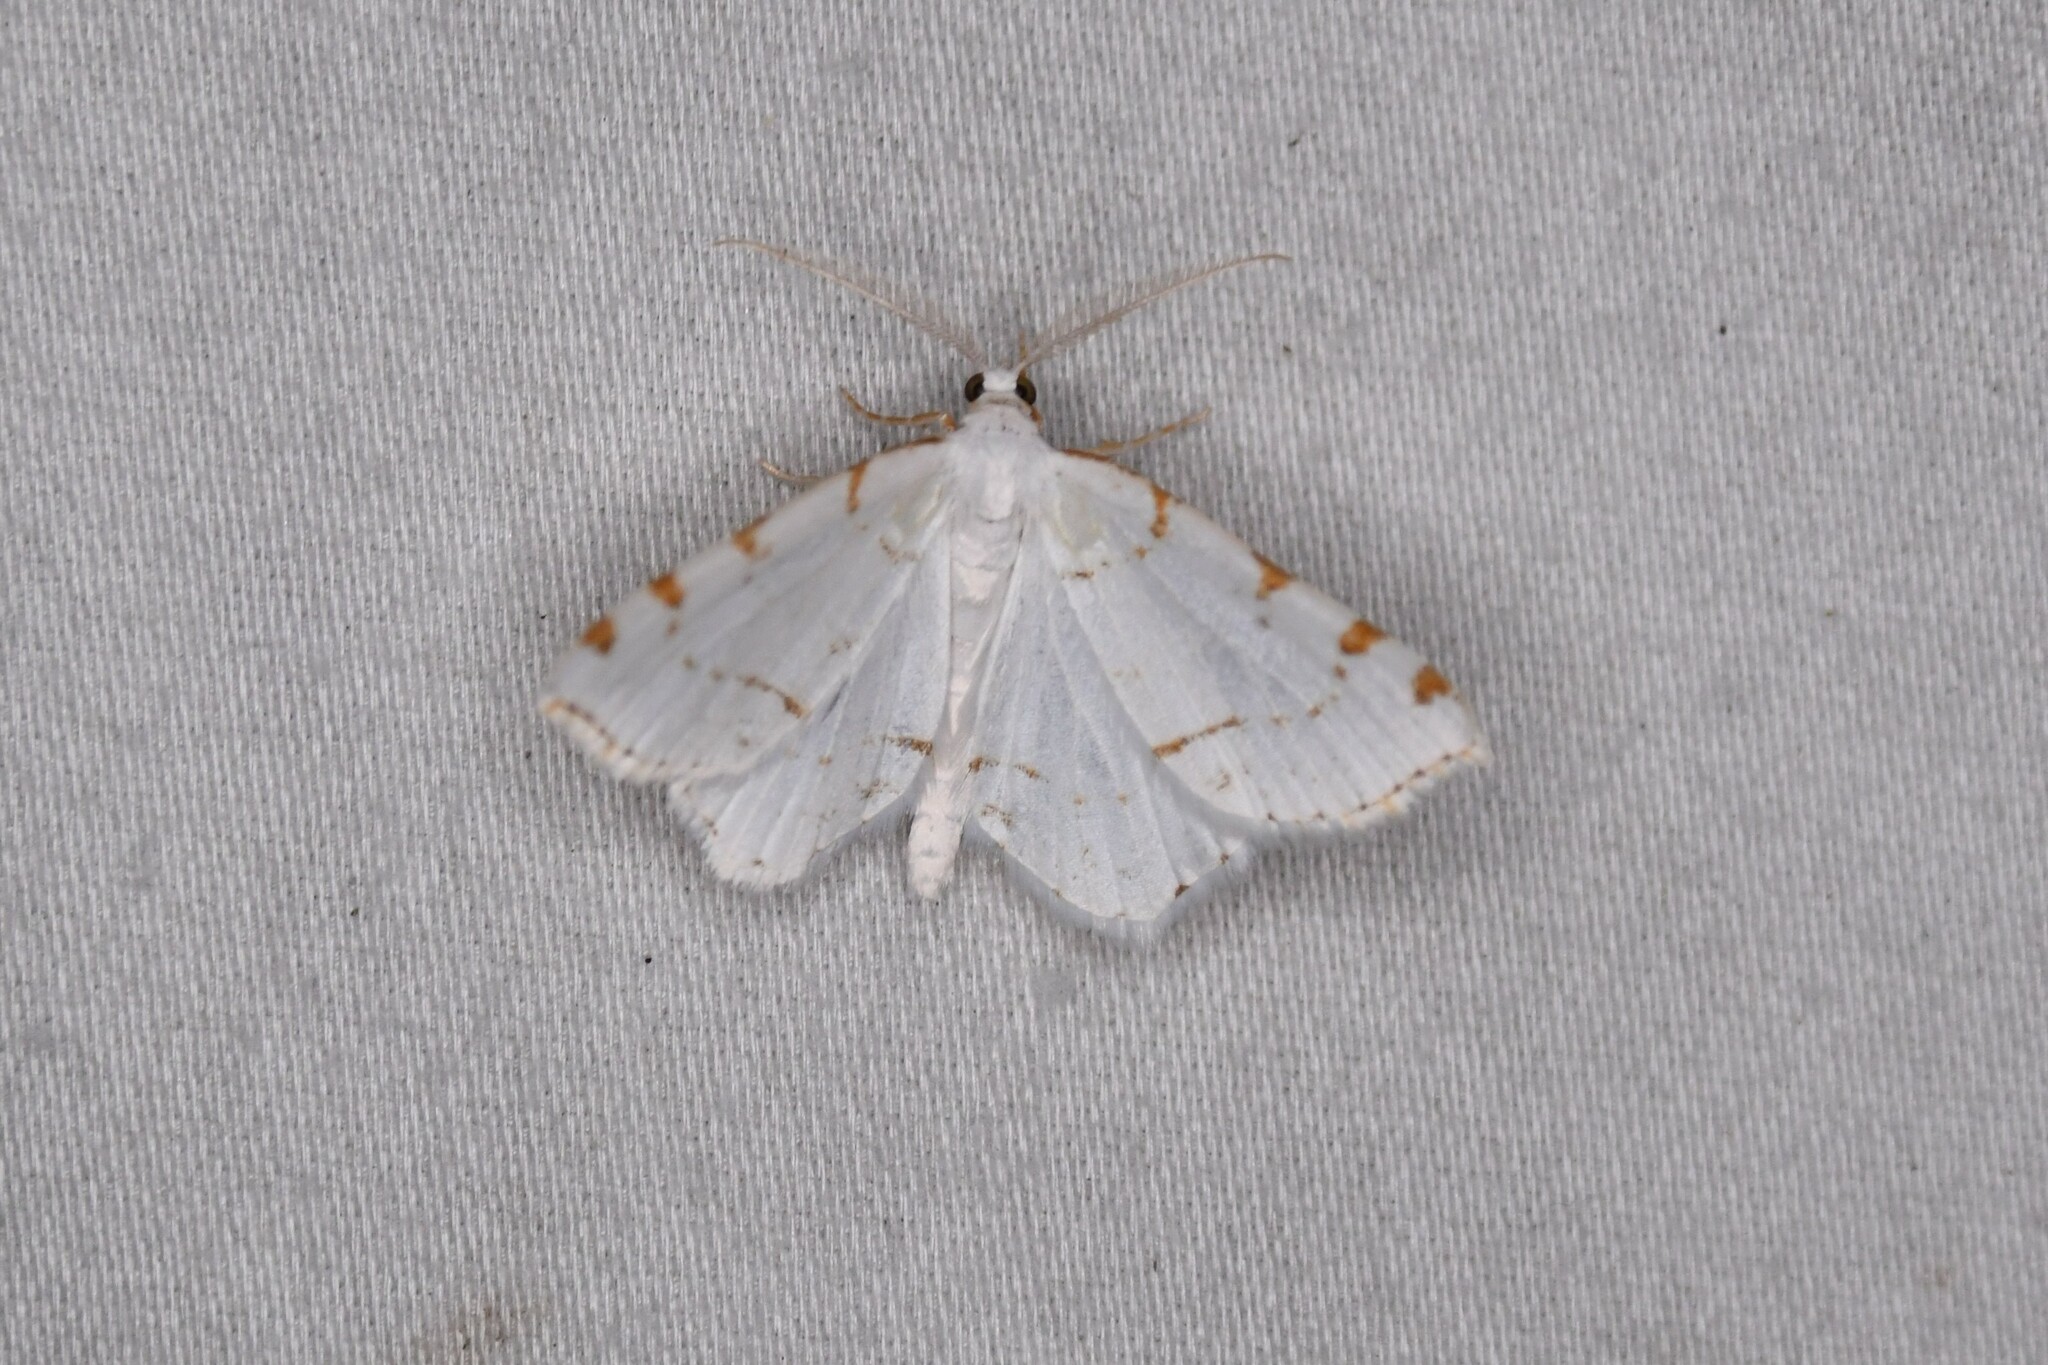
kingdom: Animalia
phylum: Arthropoda
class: Insecta
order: Lepidoptera
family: Geometridae
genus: Macaria
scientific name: Macaria pustularia
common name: Lesser maple spanworm moth
